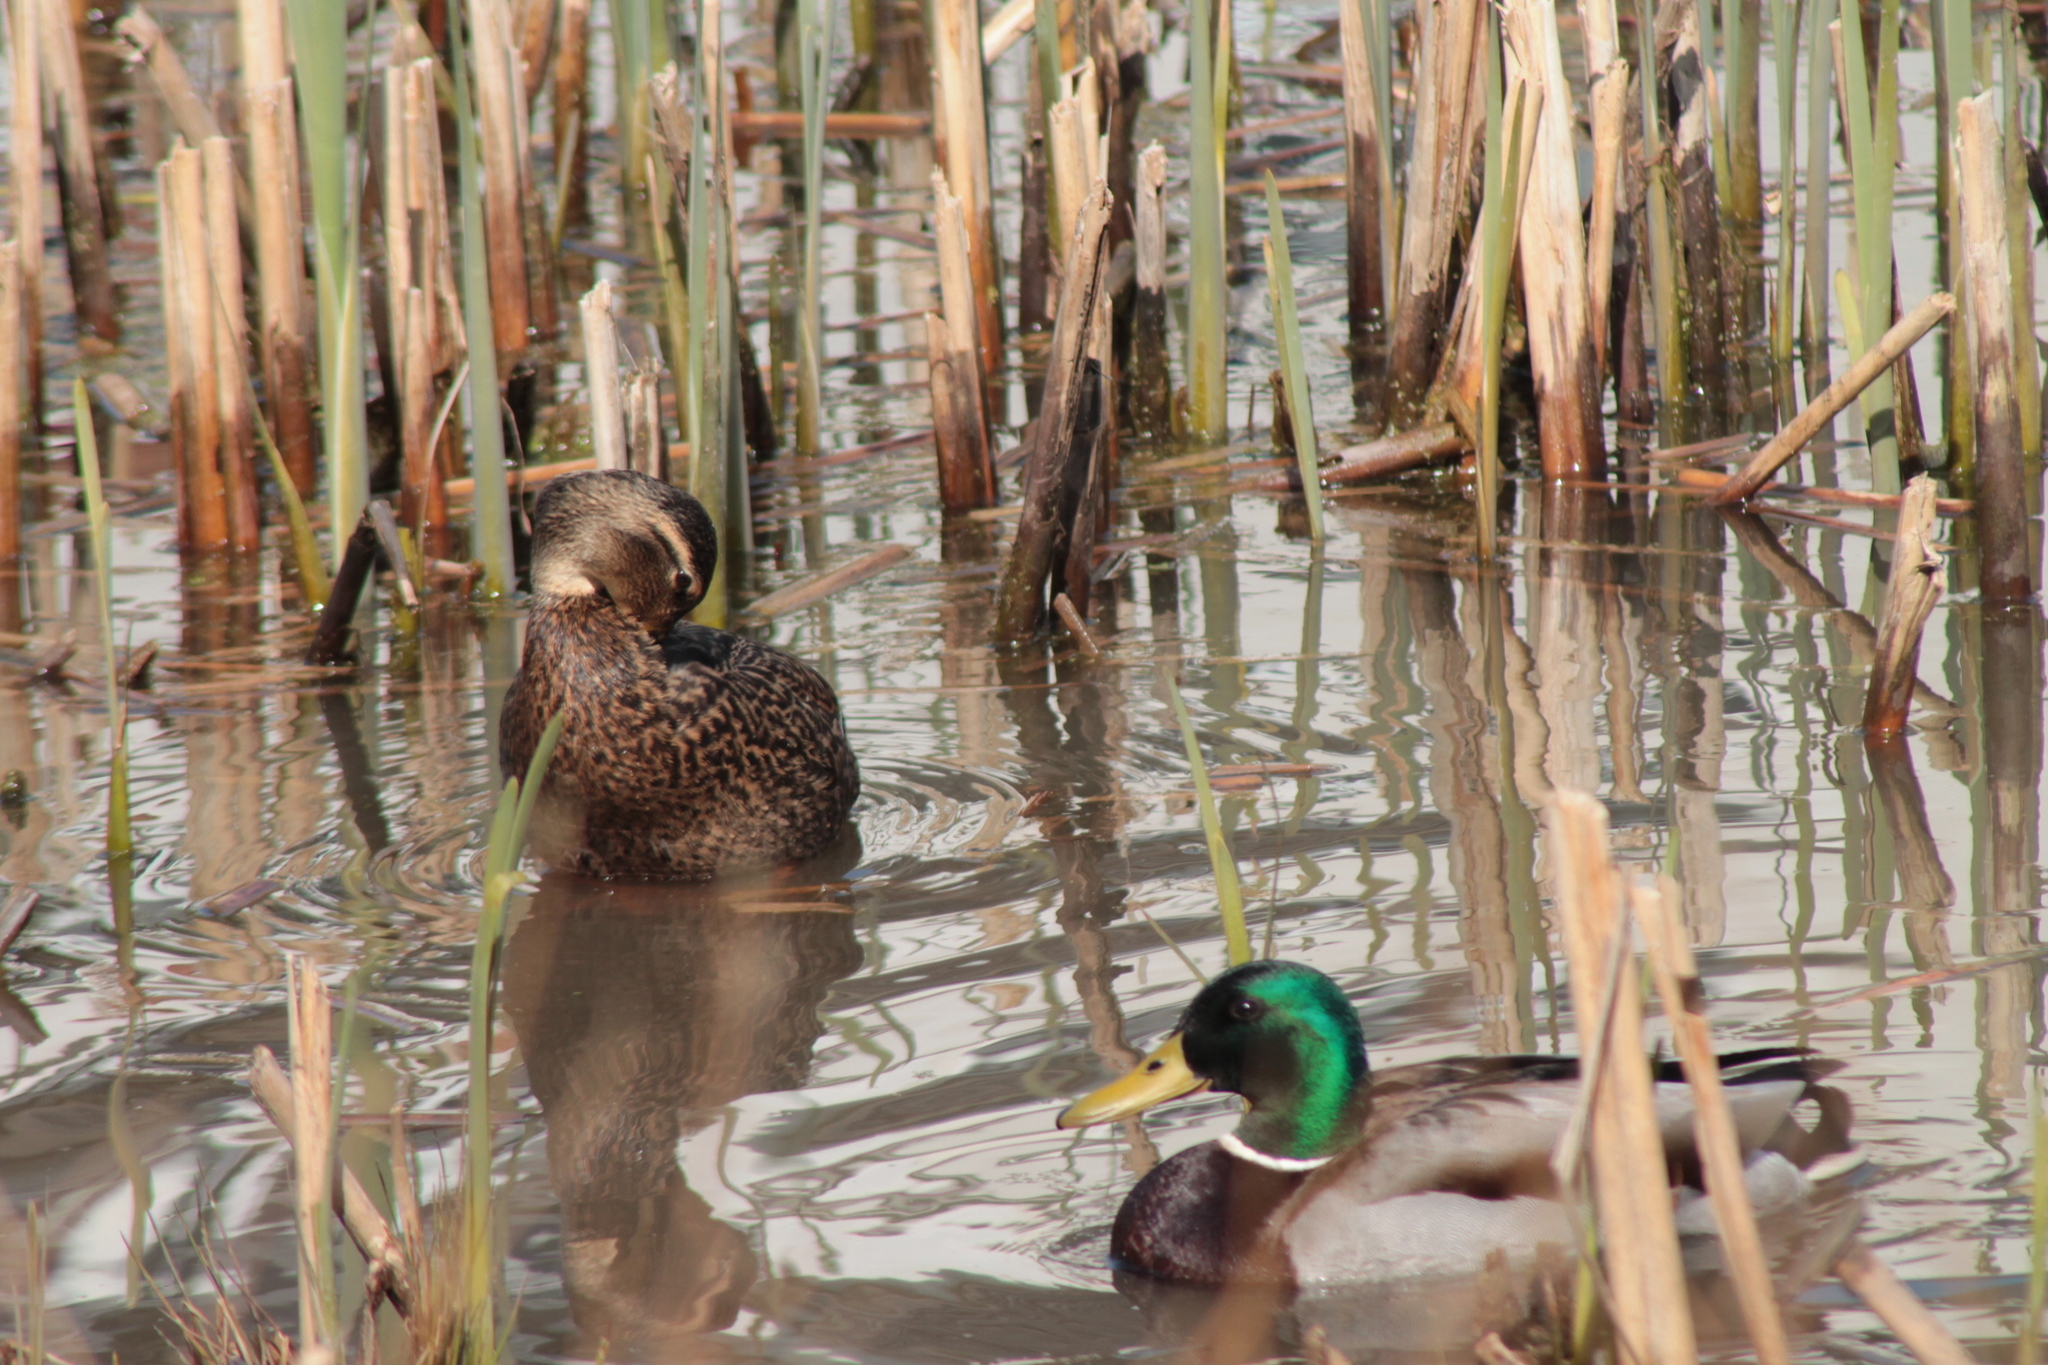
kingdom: Animalia
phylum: Chordata
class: Aves
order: Anseriformes
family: Anatidae
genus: Anas
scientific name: Anas platyrhynchos
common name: Mallard
